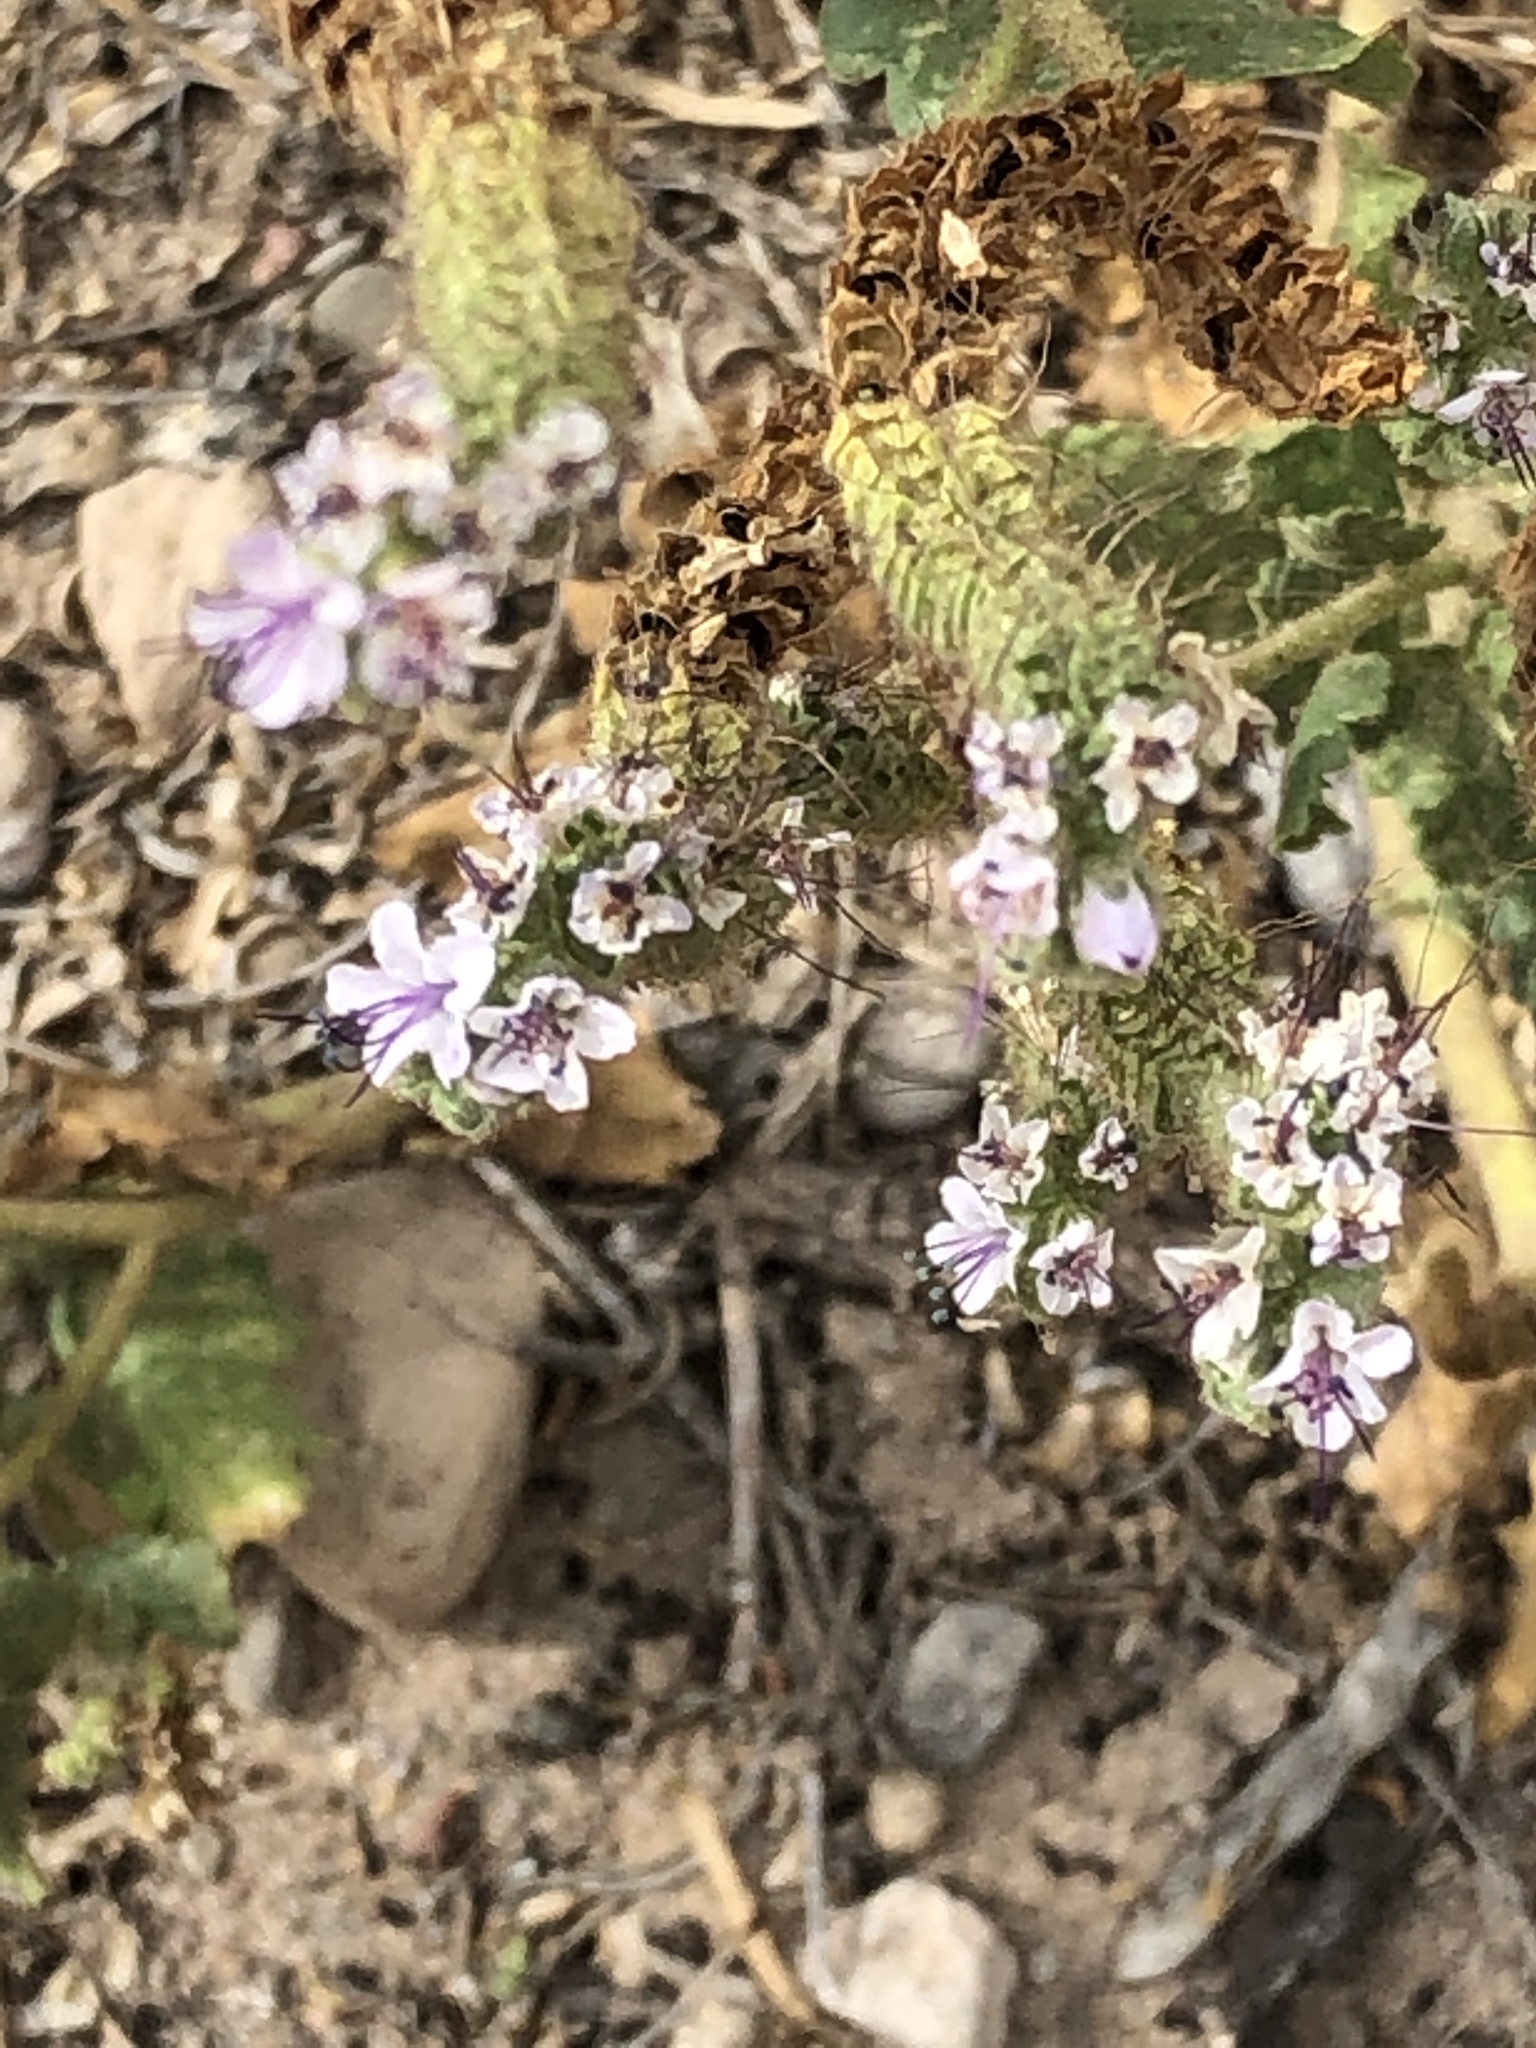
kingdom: Plantae
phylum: Tracheophyta
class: Magnoliopsida
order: Boraginales
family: Hydrophyllaceae
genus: Phacelia
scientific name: Phacelia integrifolia
